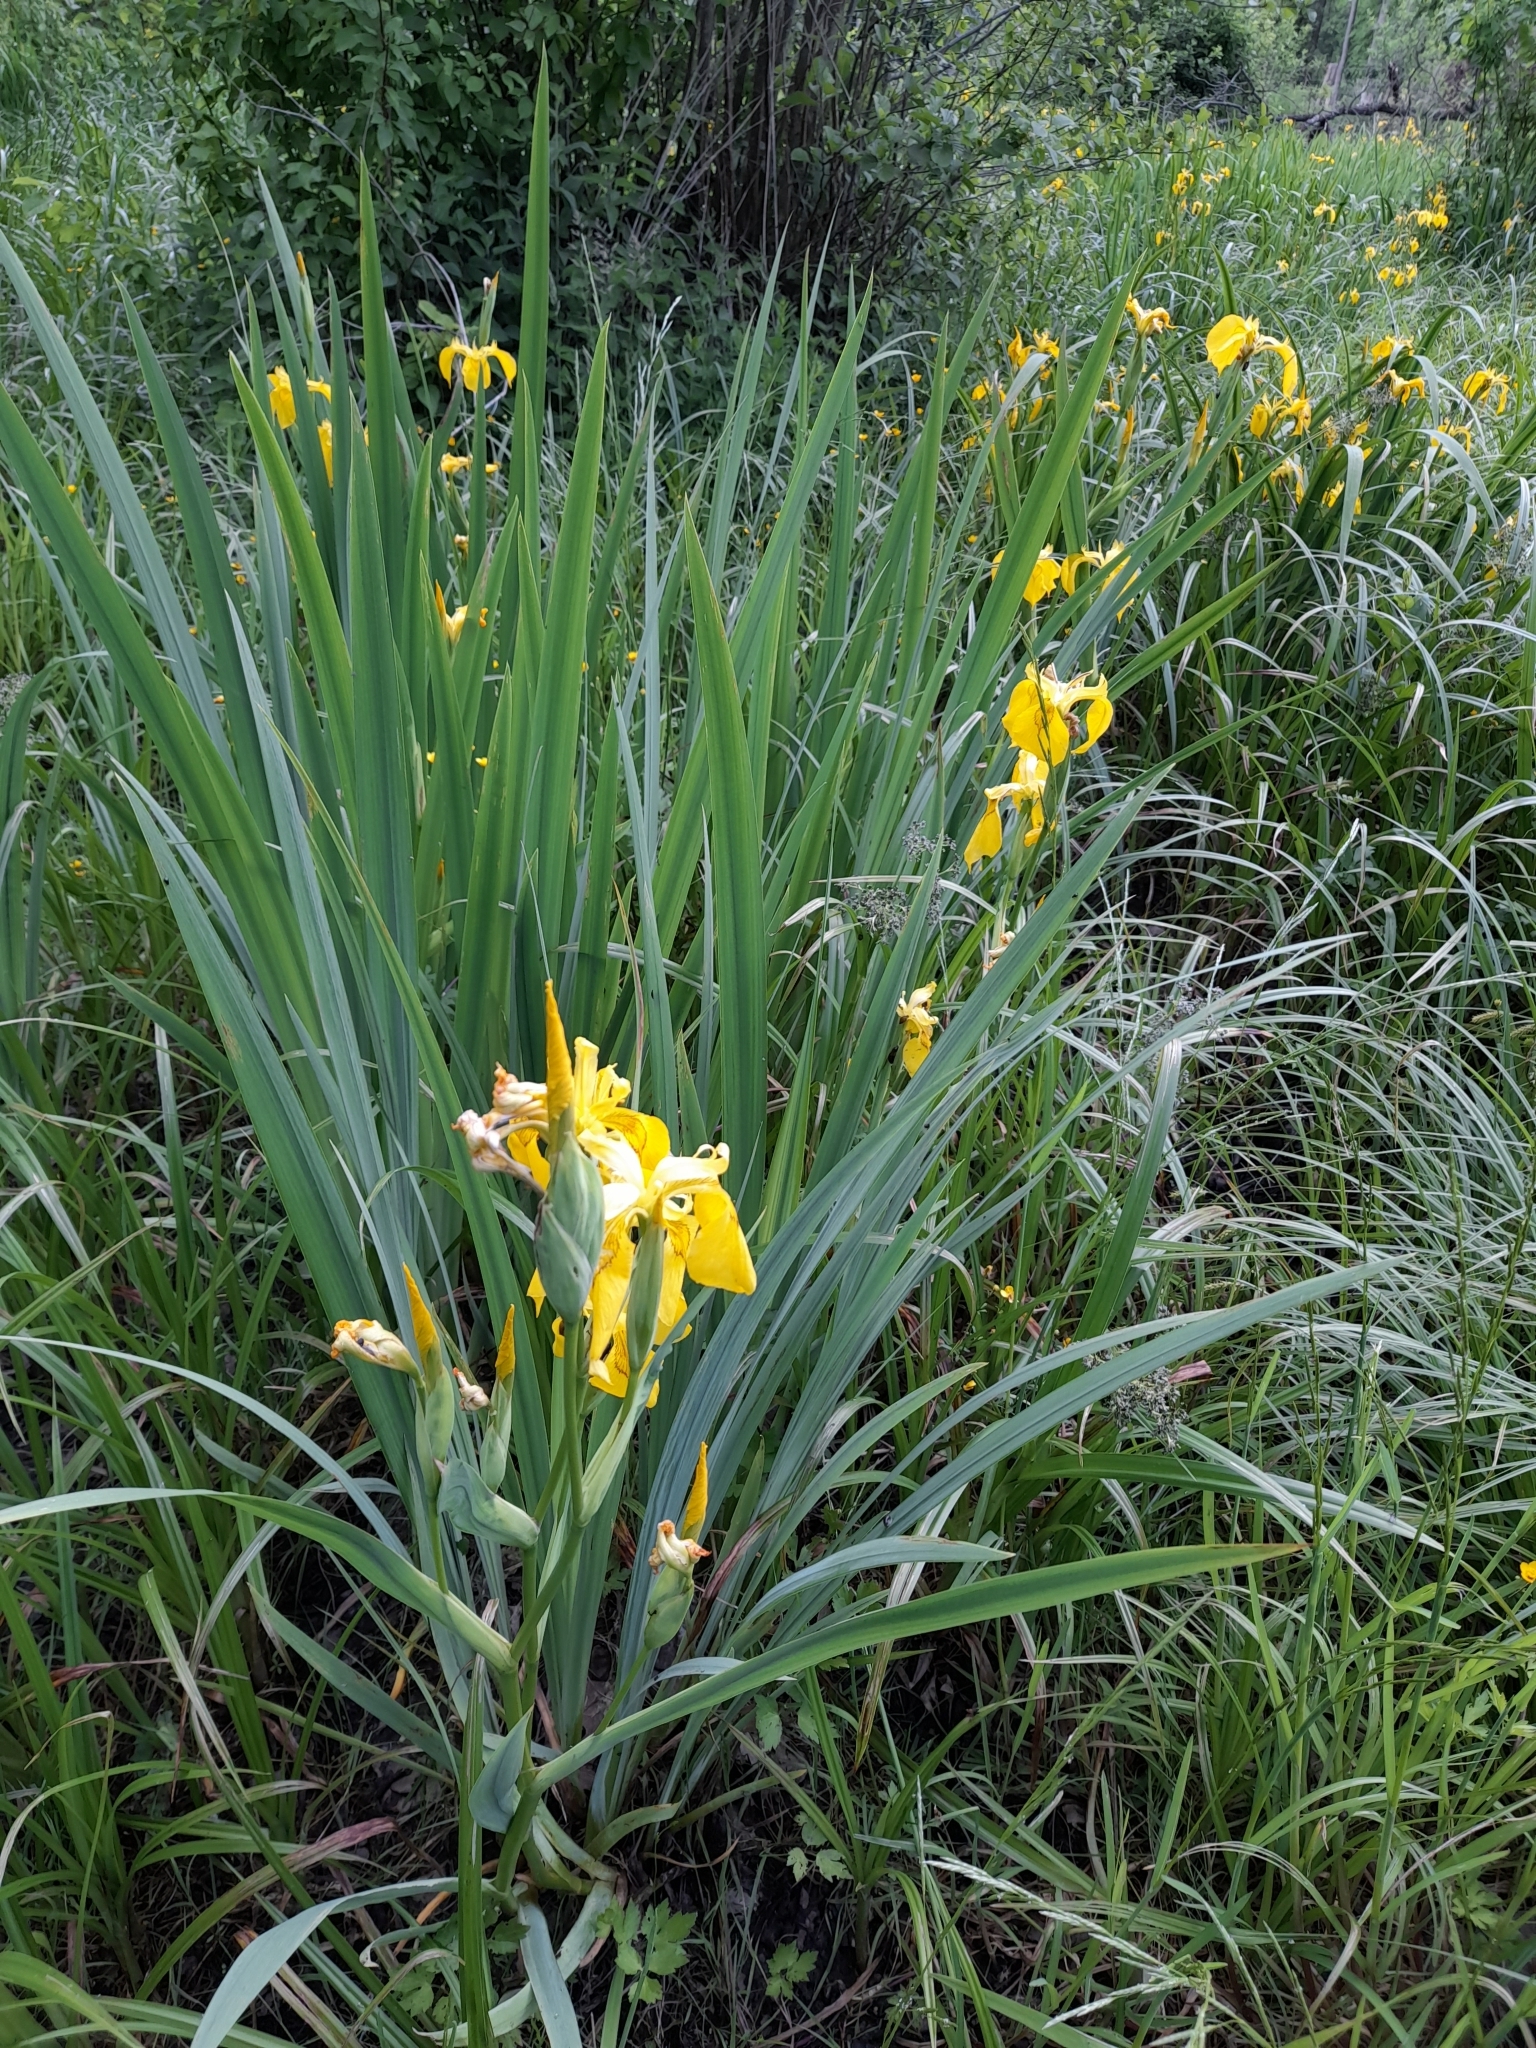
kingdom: Plantae
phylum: Tracheophyta
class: Liliopsida
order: Asparagales
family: Iridaceae
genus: Iris
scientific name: Iris pseudacorus
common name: Yellow flag
